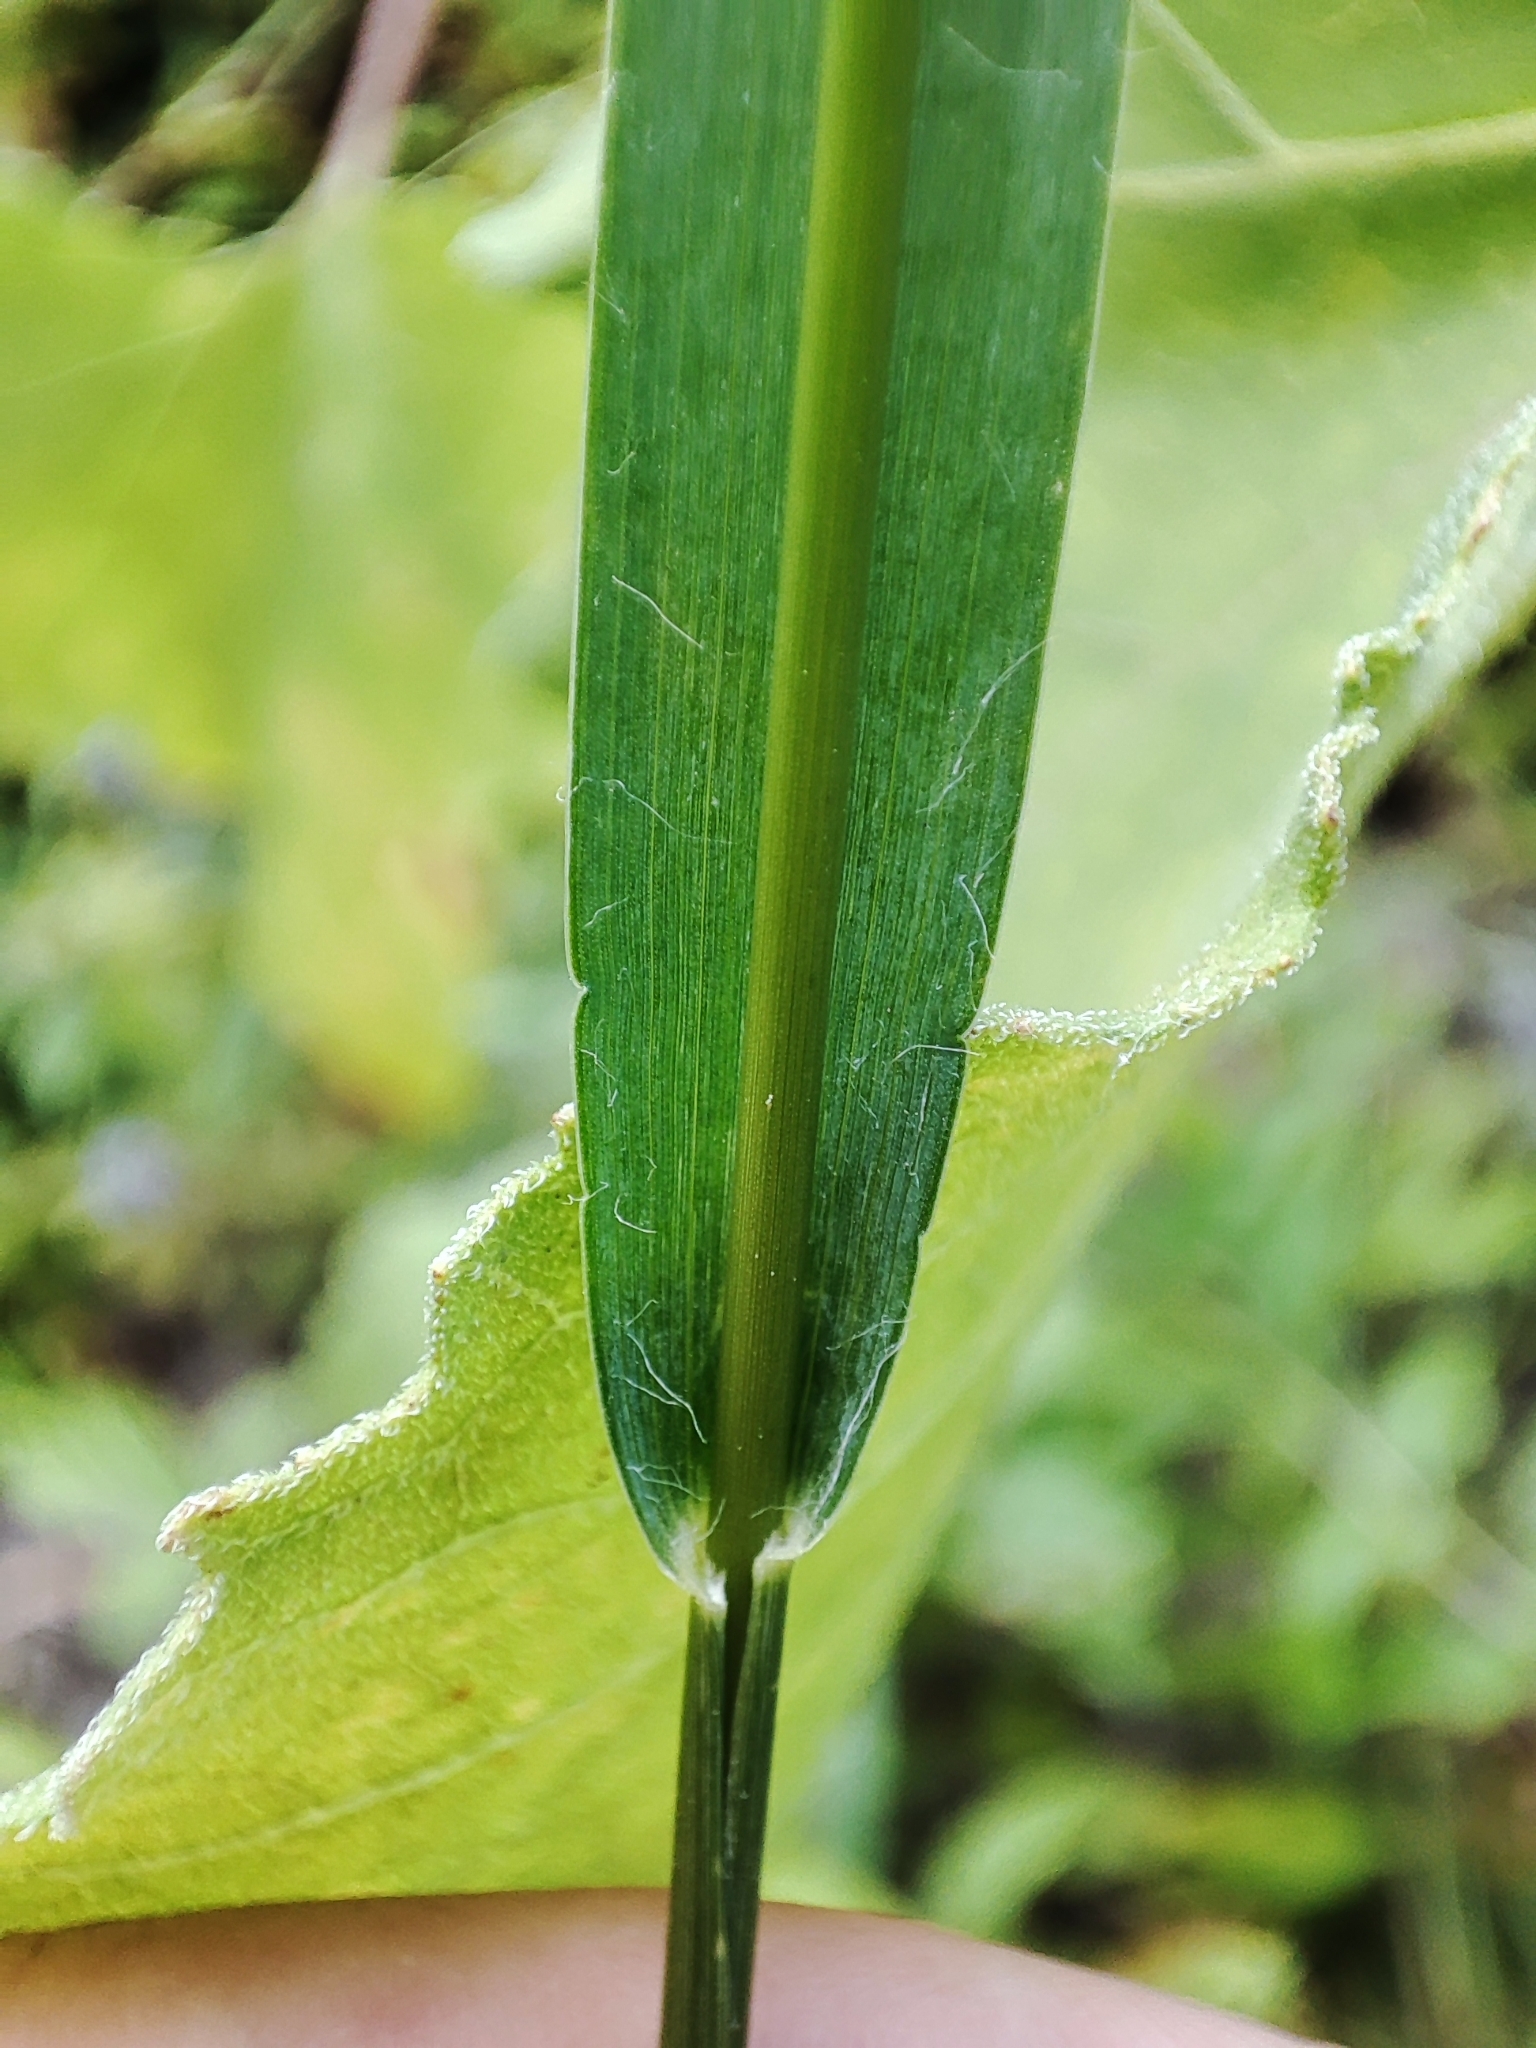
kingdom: Plantae
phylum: Tracheophyta
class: Liliopsida
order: Poales
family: Poaceae
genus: Setaria
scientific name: Setaria pumila
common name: Yellow bristle-grass
